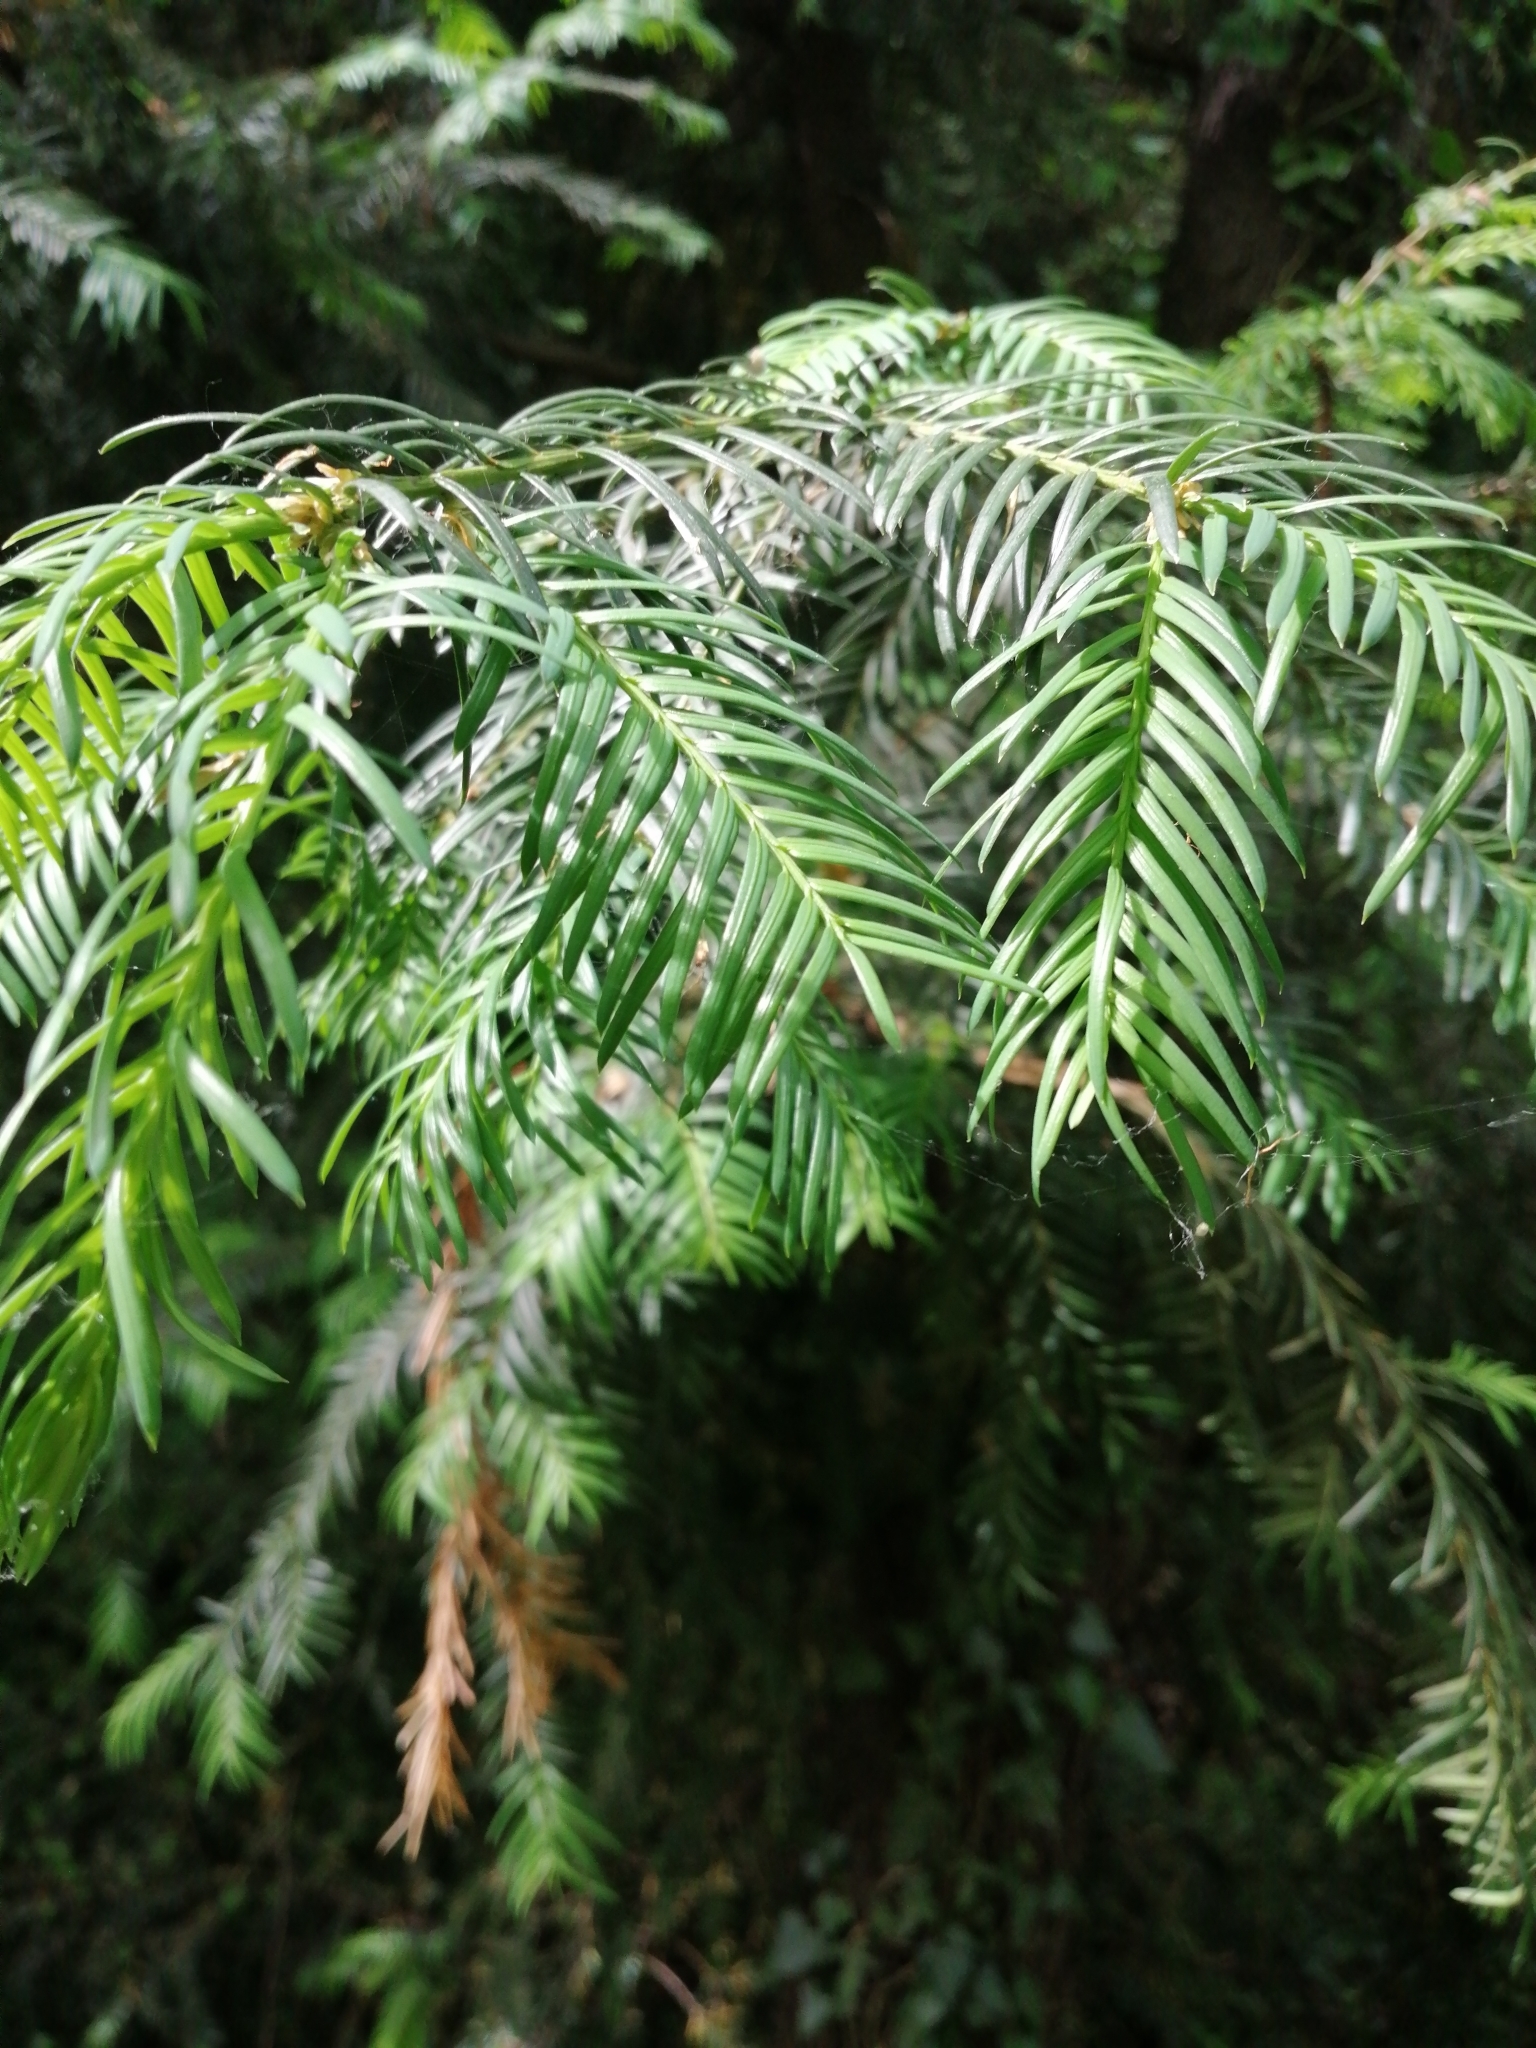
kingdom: Plantae
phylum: Tracheophyta
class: Pinopsida
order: Pinales
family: Taxaceae
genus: Taxus
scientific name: Taxus baccata
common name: Yew
